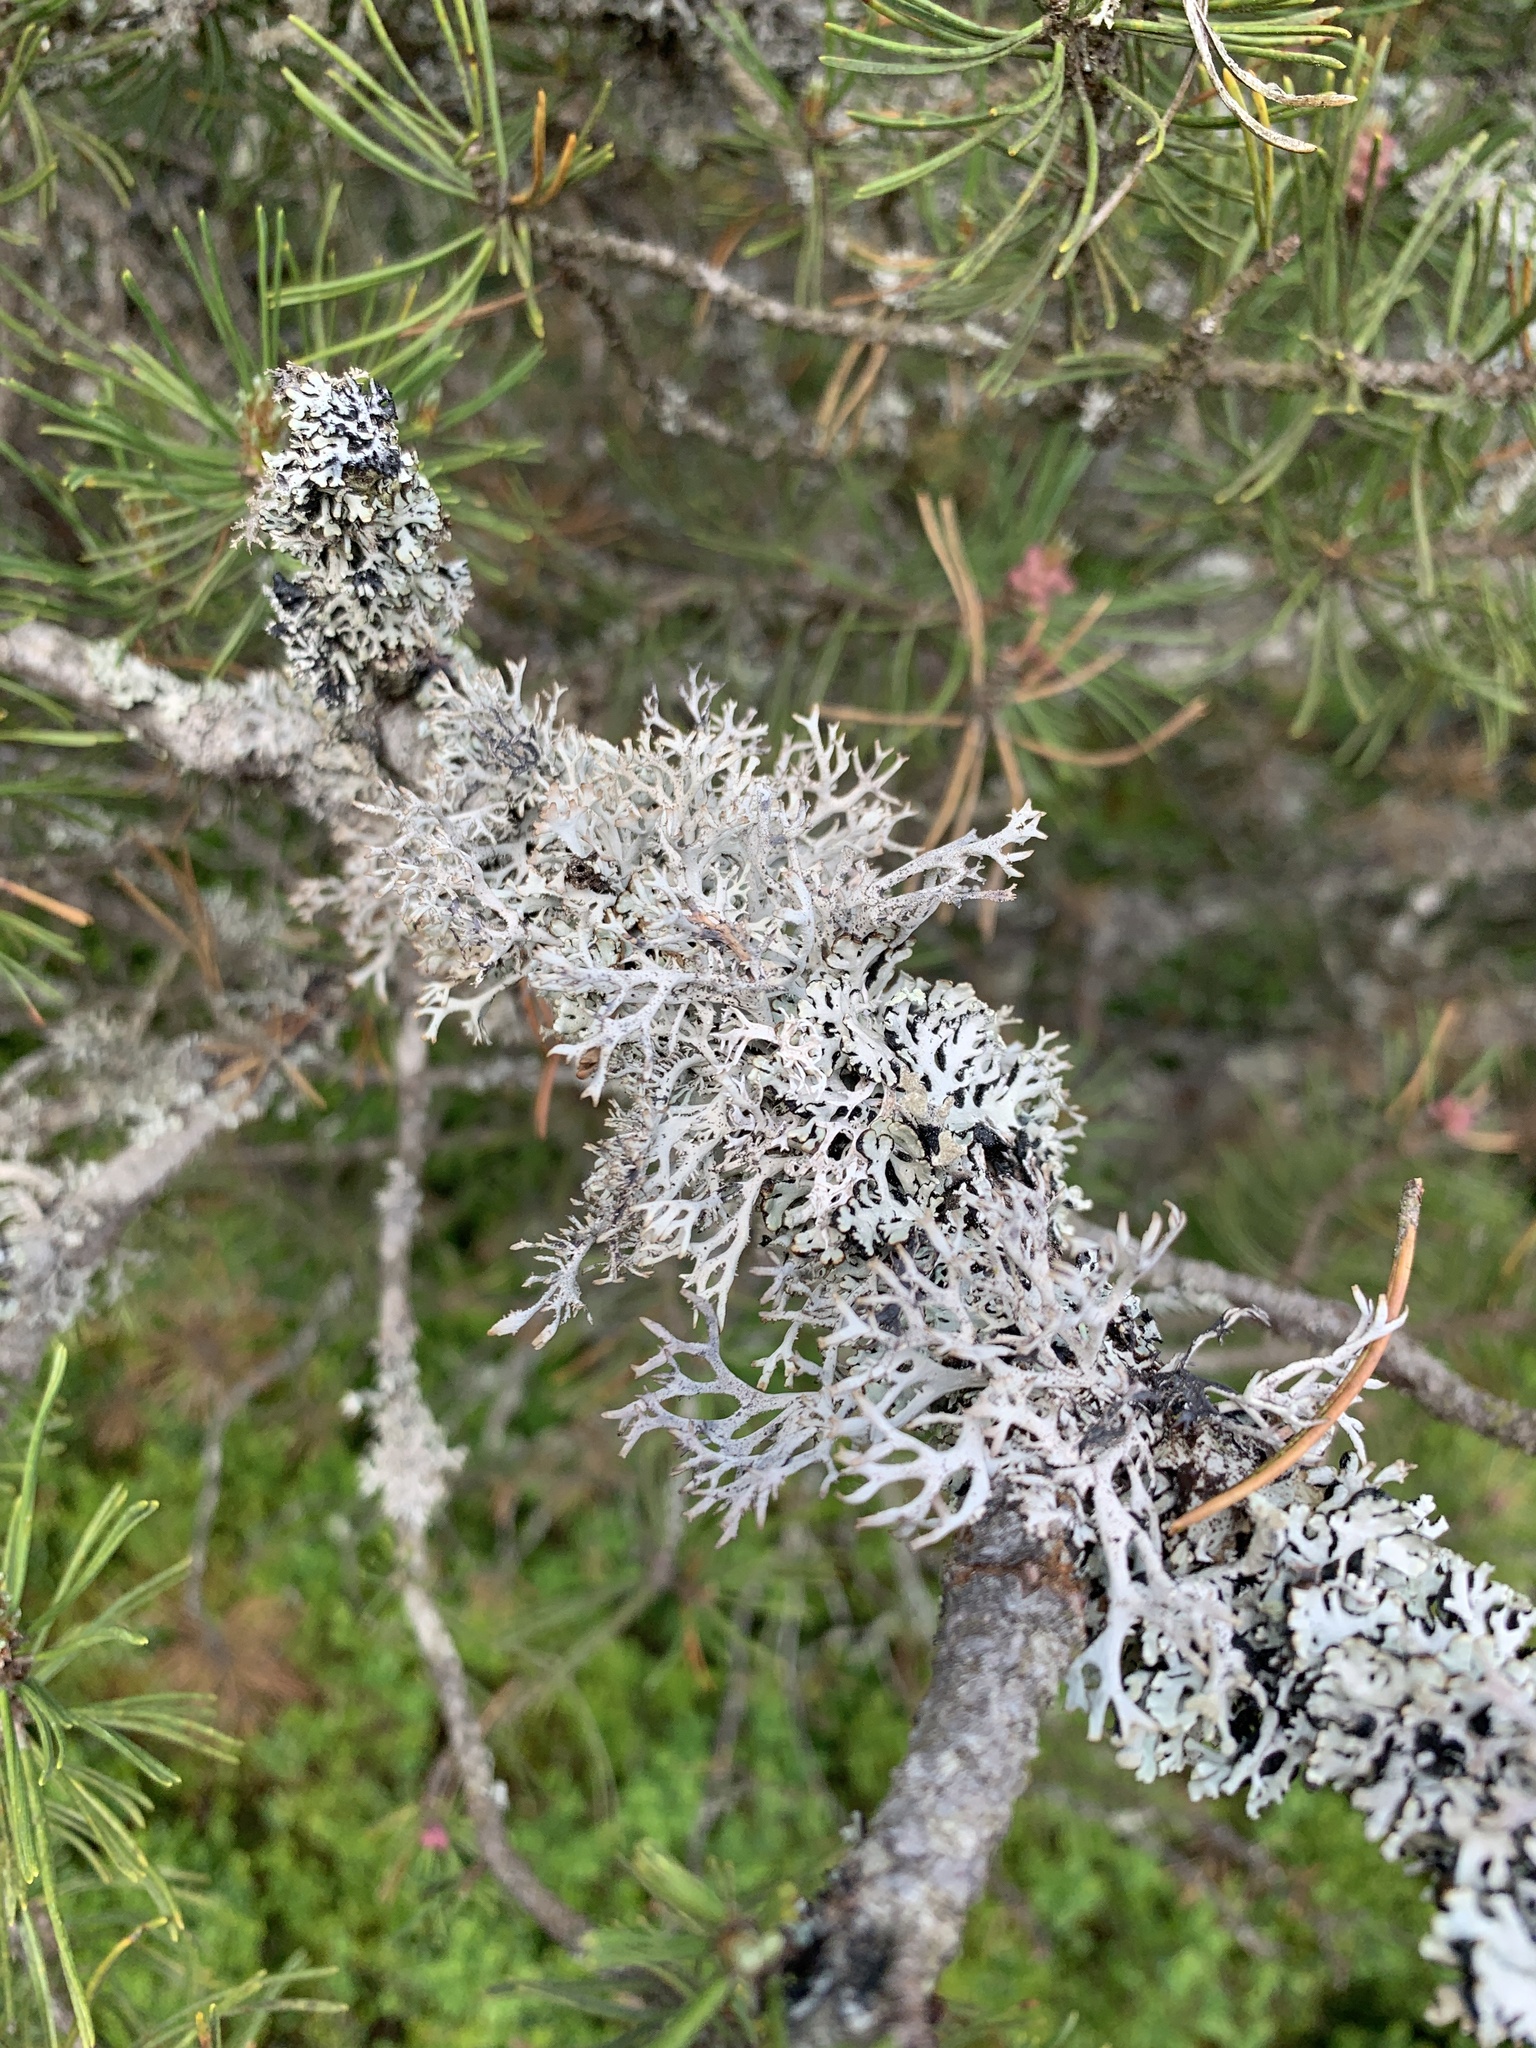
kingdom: Fungi
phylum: Ascomycota
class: Lecanoromycetes
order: Lecanorales
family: Parmeliaceae
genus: Pseudevernia
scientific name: Pseudevernia furfuracea
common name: Tree moss
